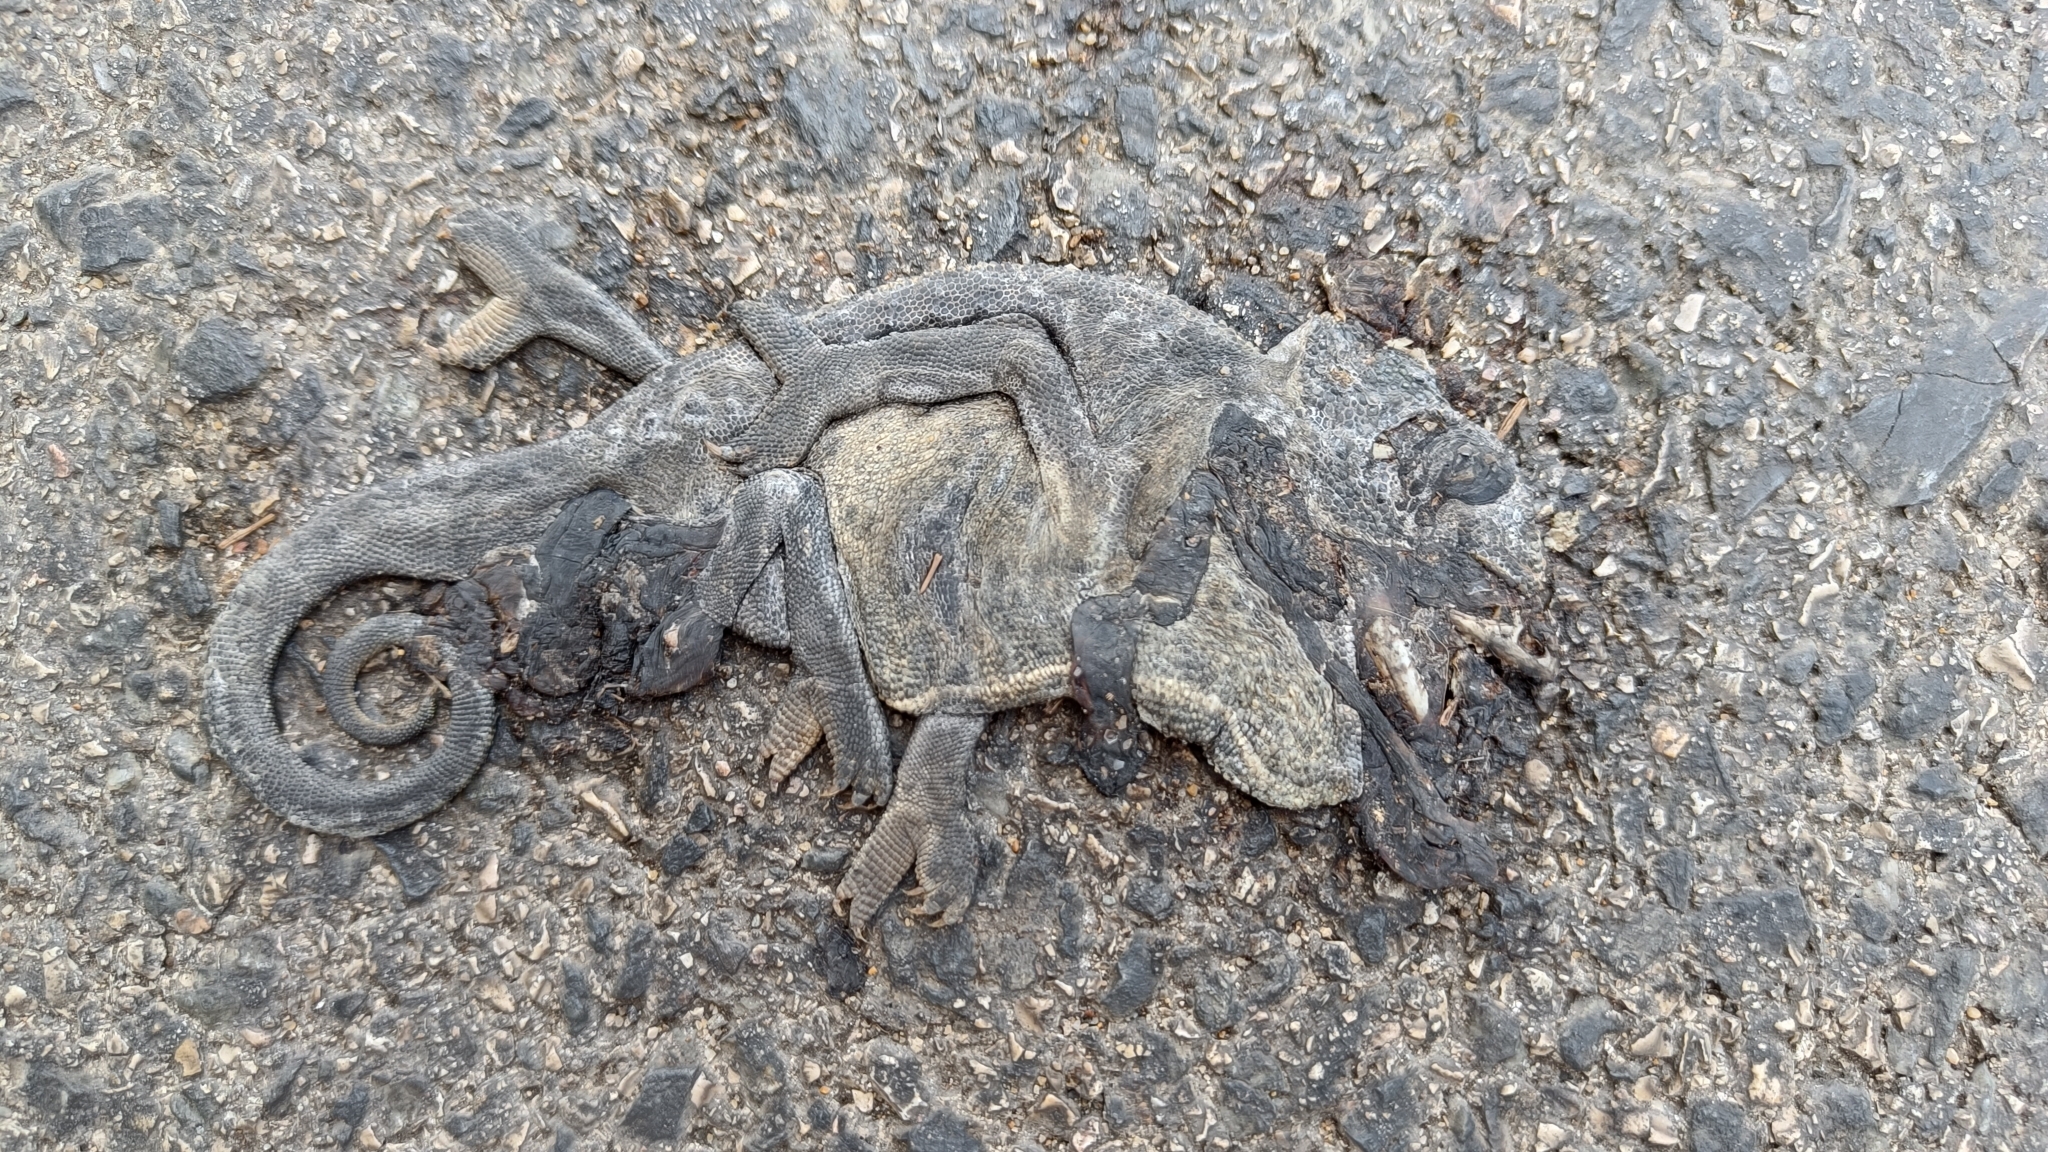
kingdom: Animalia
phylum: Chordata
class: Squamata
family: Chamaeleonidae
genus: Chamaeleo
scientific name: Chamaeleo chamaeleon
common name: Mediterranean chameleon
